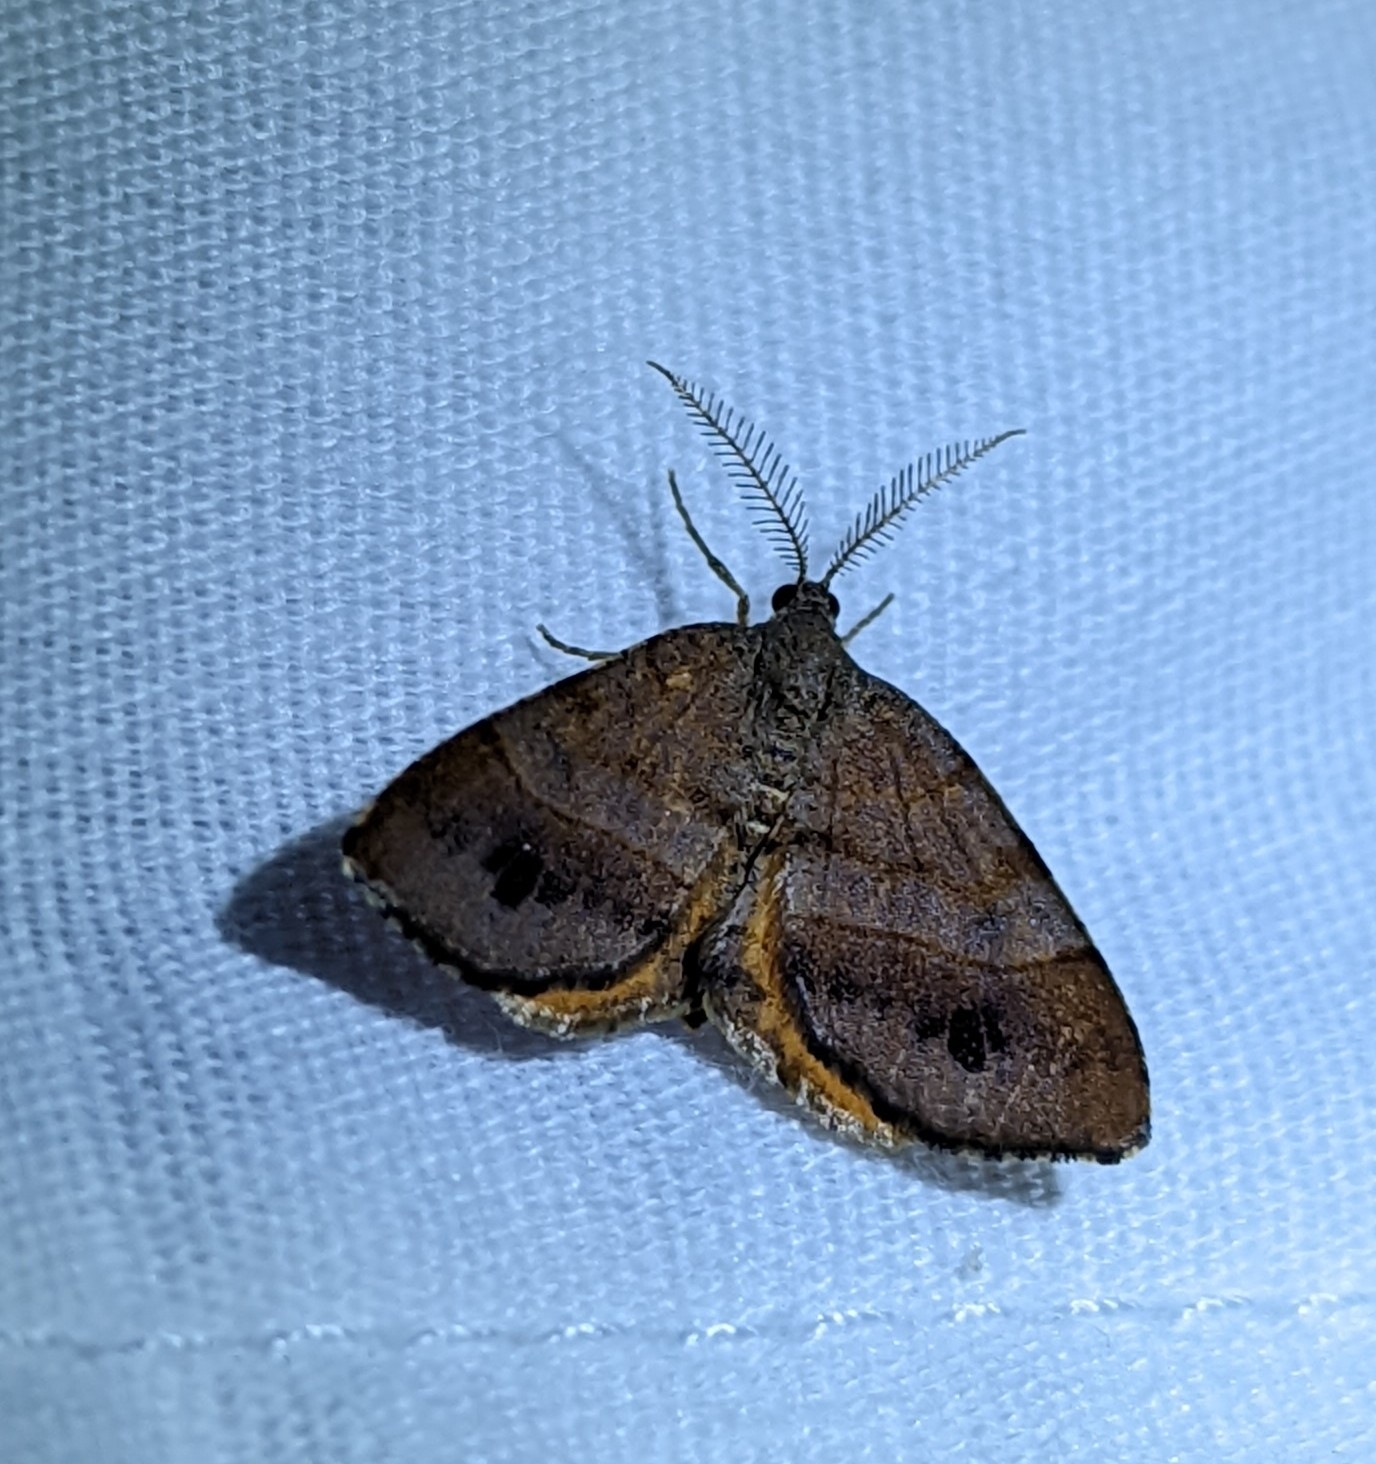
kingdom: Animalia
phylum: Arthropoda
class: Insecta
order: Lepidoptera
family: Geometridae
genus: Mellilla
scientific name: Mellilla xanthometata
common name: Orange wing moth
